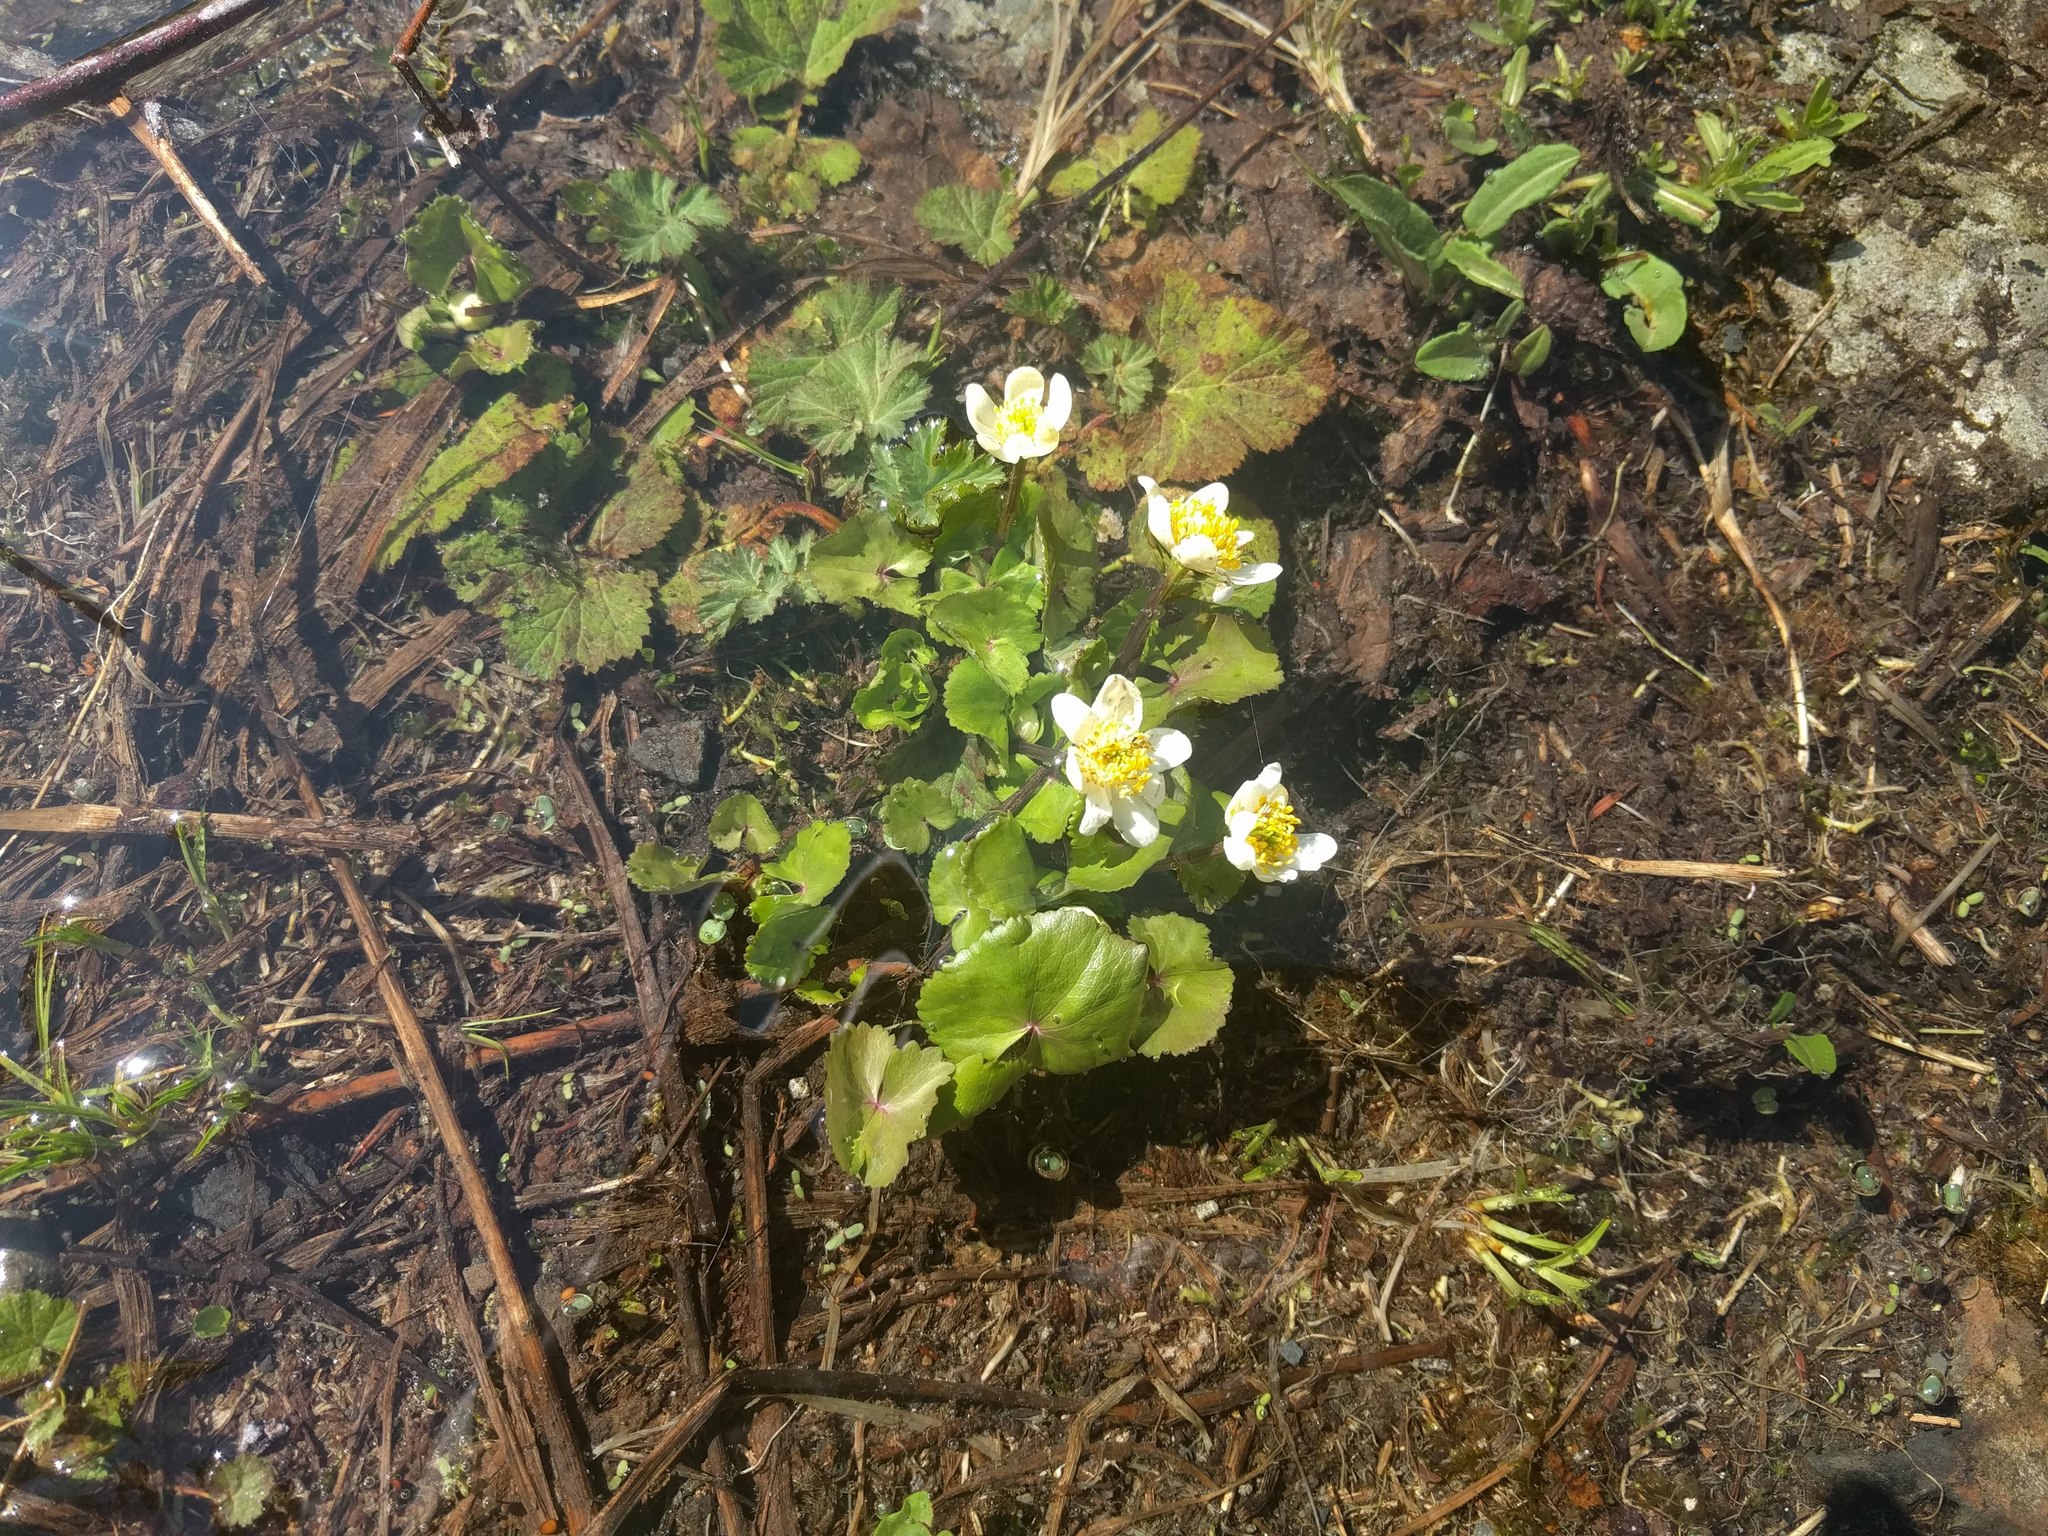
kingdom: Plantae
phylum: Tracheophyta
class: Magnoliopsida
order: Ranunculales
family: Ranunculaceae
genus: Caltha
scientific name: Caltha leptosepala
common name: Elkslip
